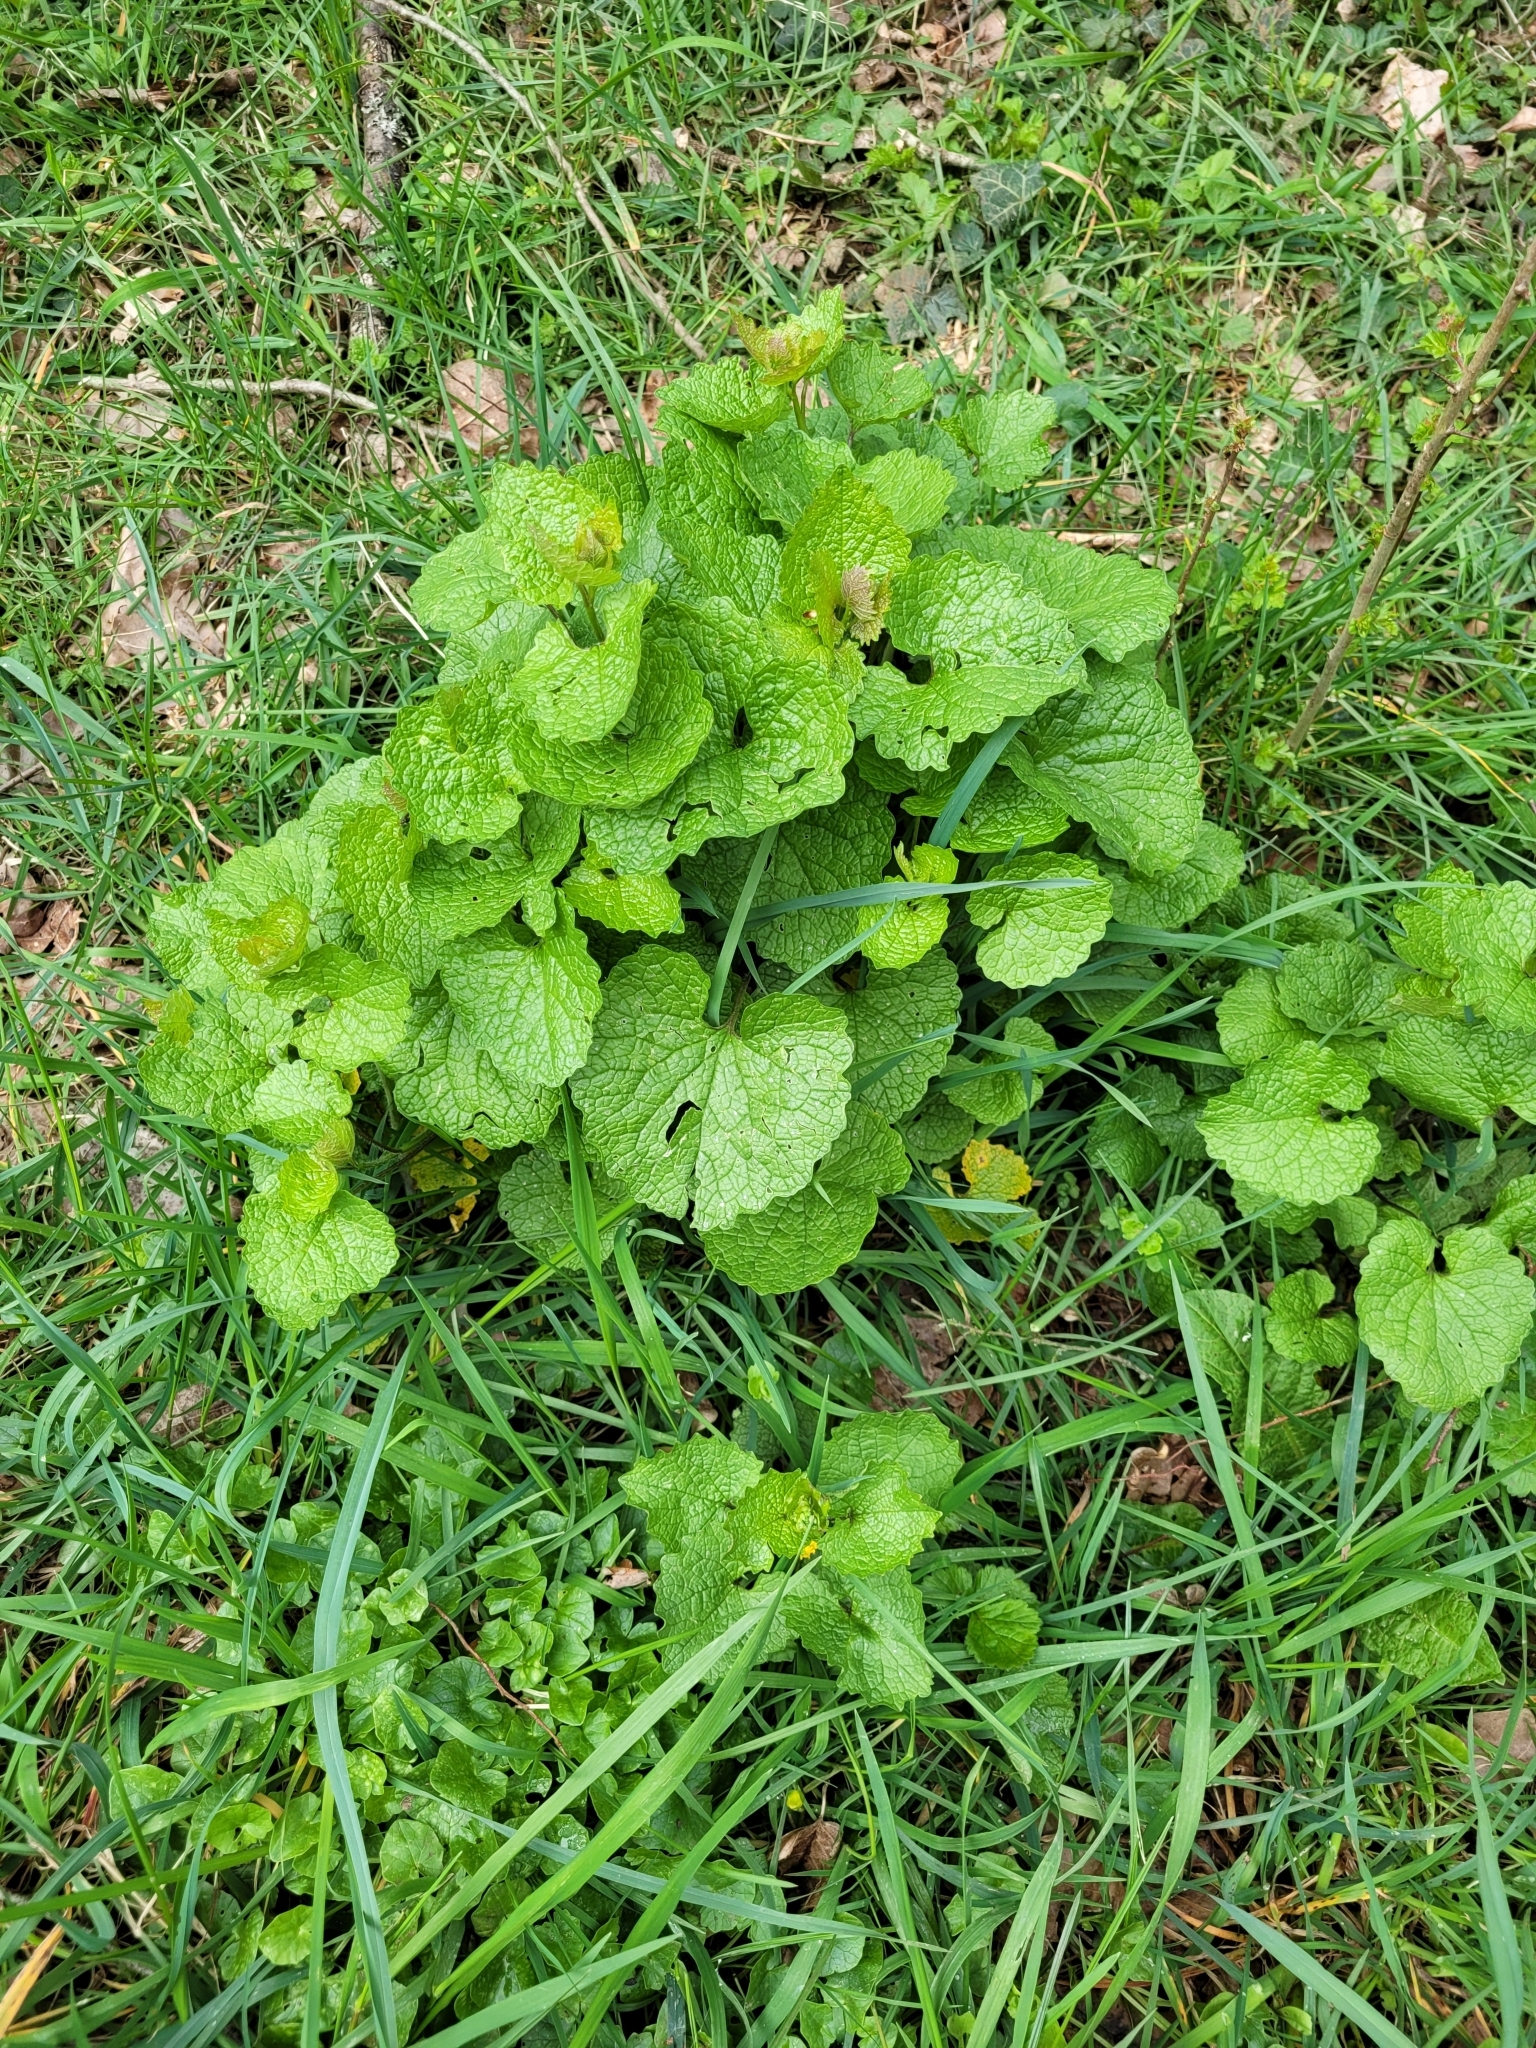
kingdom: Plantae
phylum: Tracheophyta
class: Magnoliopsida
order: Brassicales
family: Brassicaceae
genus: Alliaria
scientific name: Alliaria petiolata
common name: Garlic mustard
